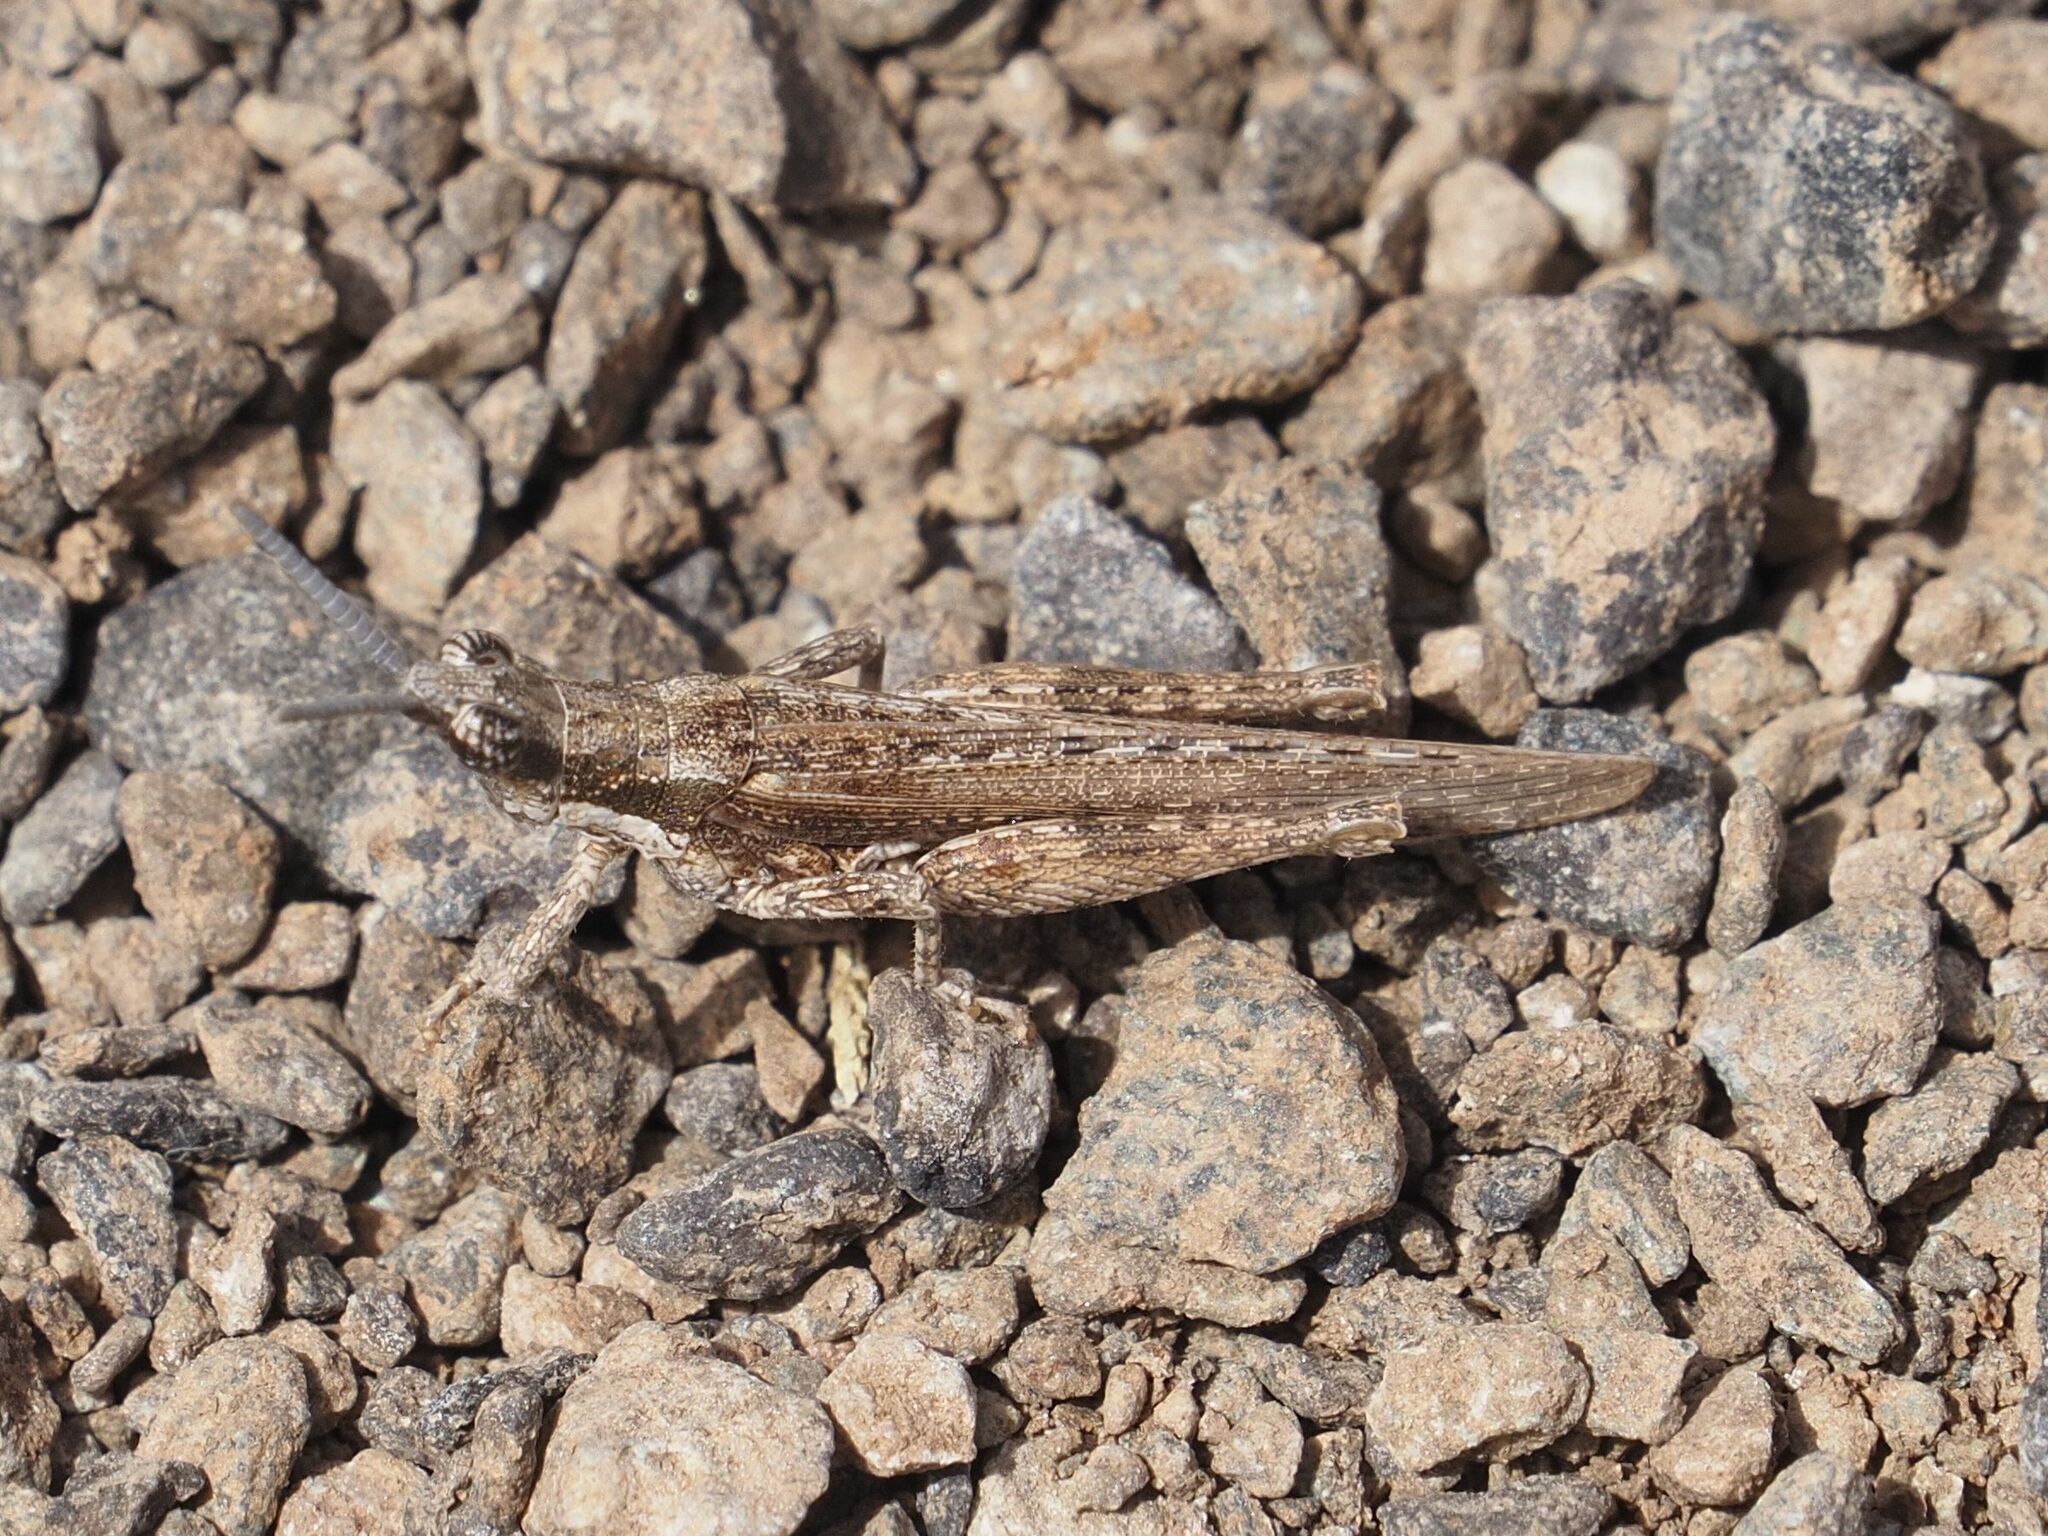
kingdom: Animalia
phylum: Arthropoda
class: Insecta
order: Orthoptera
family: Pyrgomorphidae
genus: Pyrgomorpha
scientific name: Pyrgomorpha conica
